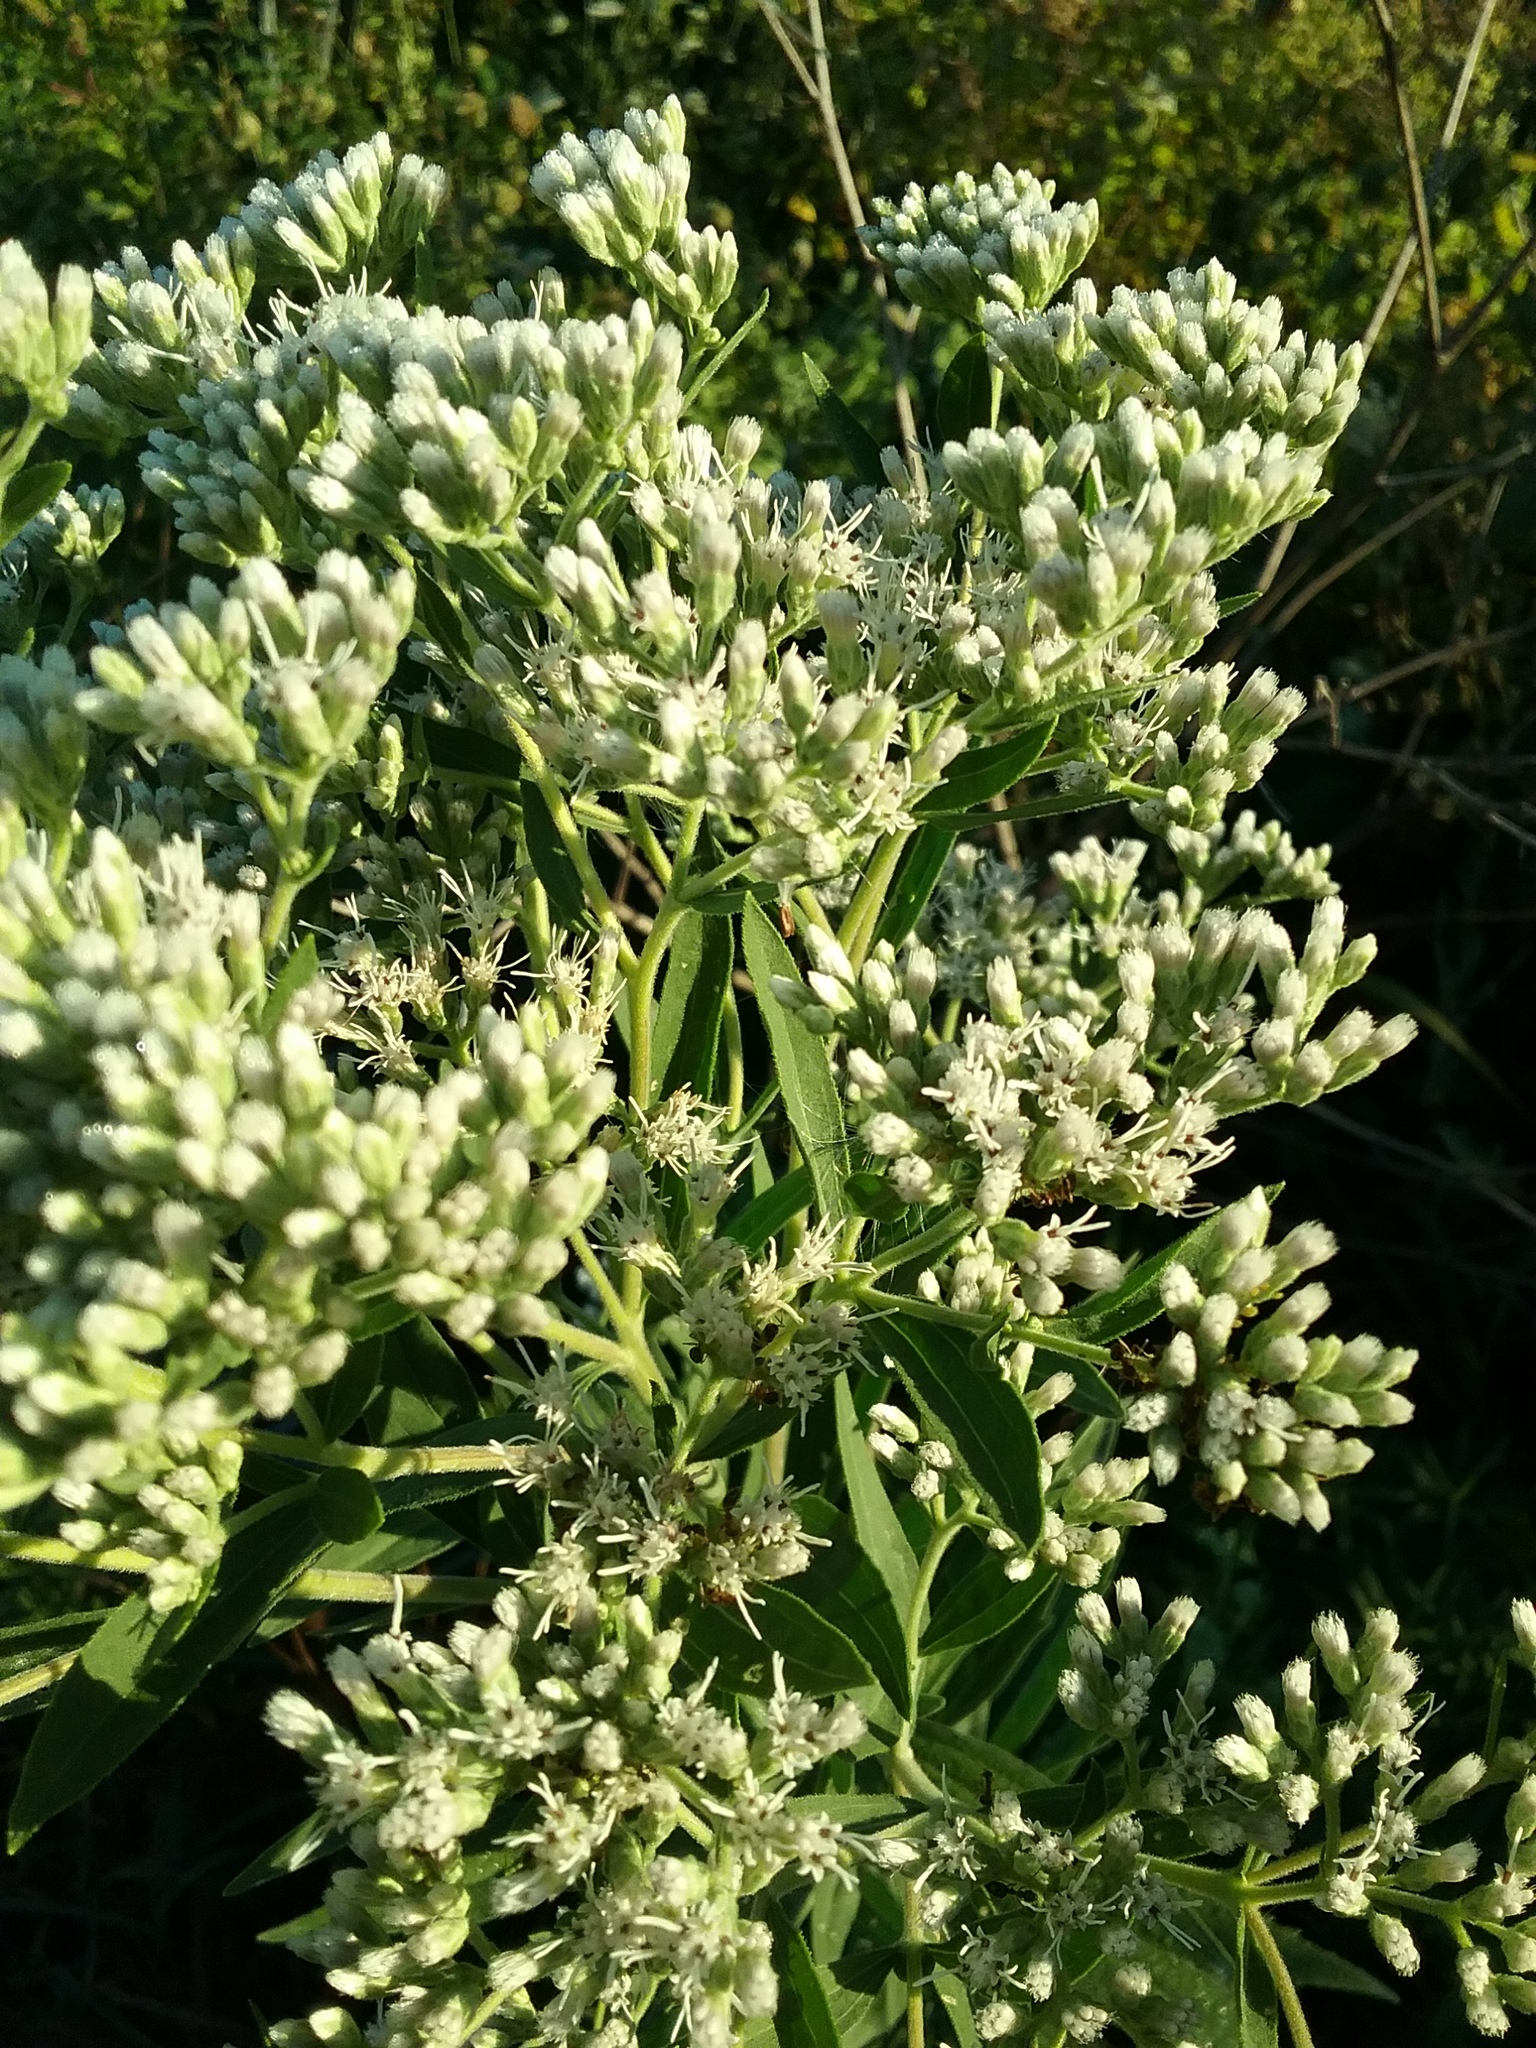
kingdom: Plantae
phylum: Tracheophyta
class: Magnoliopsida
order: Asterales
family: Asteraceae
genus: Eupatorium
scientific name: Eupatorium altissimum
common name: Tall thoroughwort
